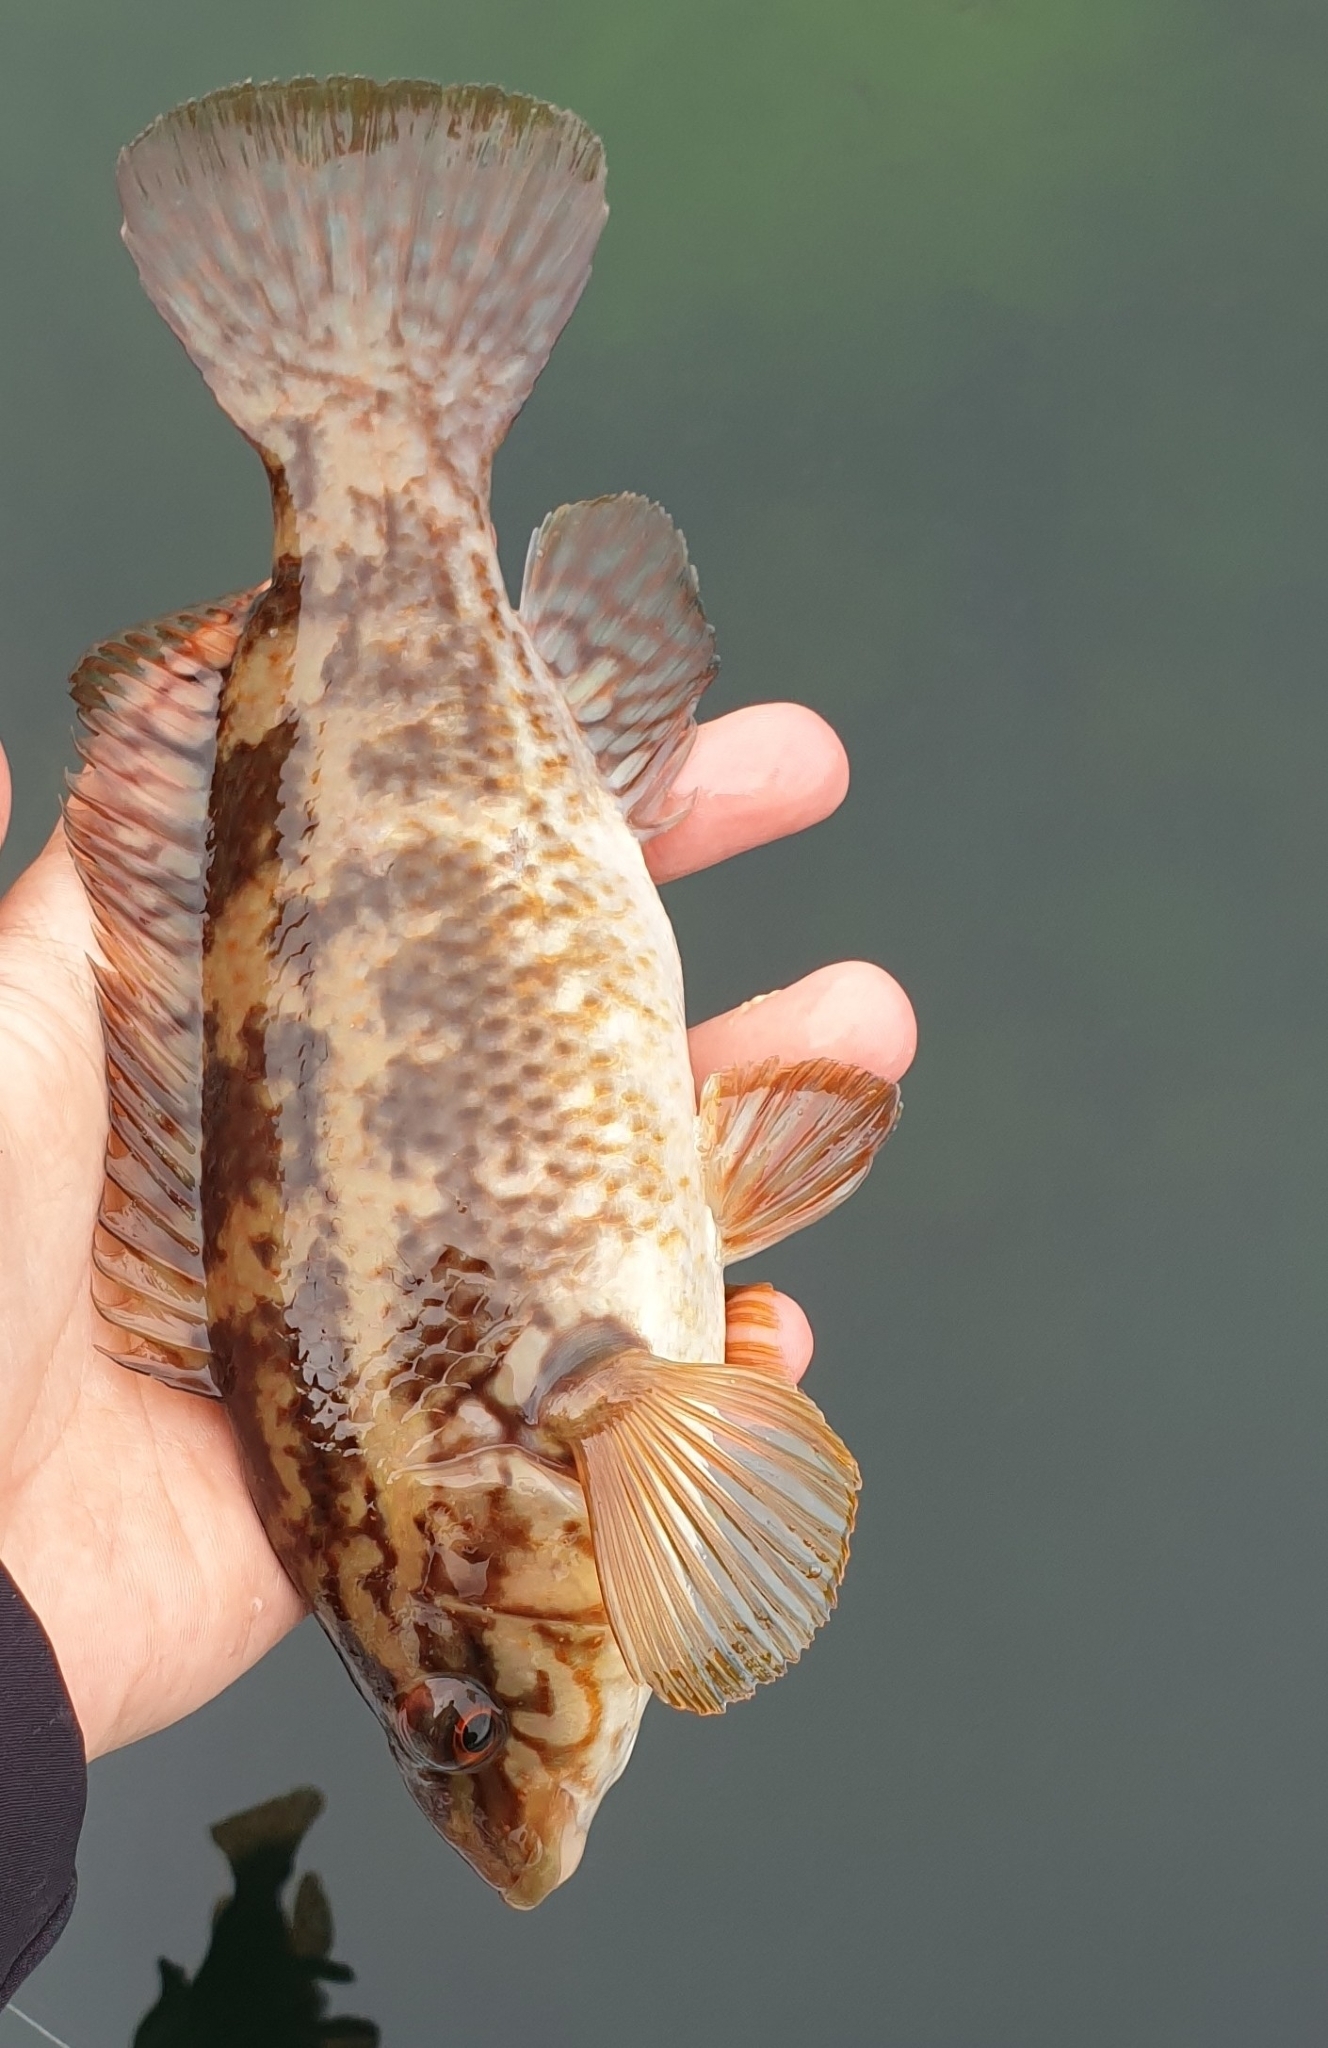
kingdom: Animalia
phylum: Chordata
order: Perciformes
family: Labridae
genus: Labrus
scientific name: Labrus bergylta
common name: Ballan wrasse
